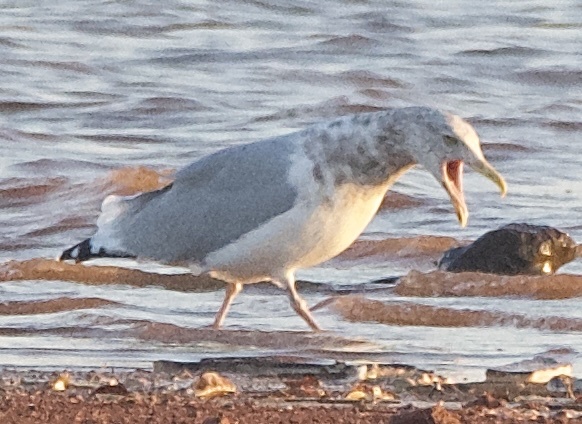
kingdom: Animalia
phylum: Chordata
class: Aves
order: Charadriiformes
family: Laridae
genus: Larus
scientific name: Larus argentatus
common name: Herring gull
